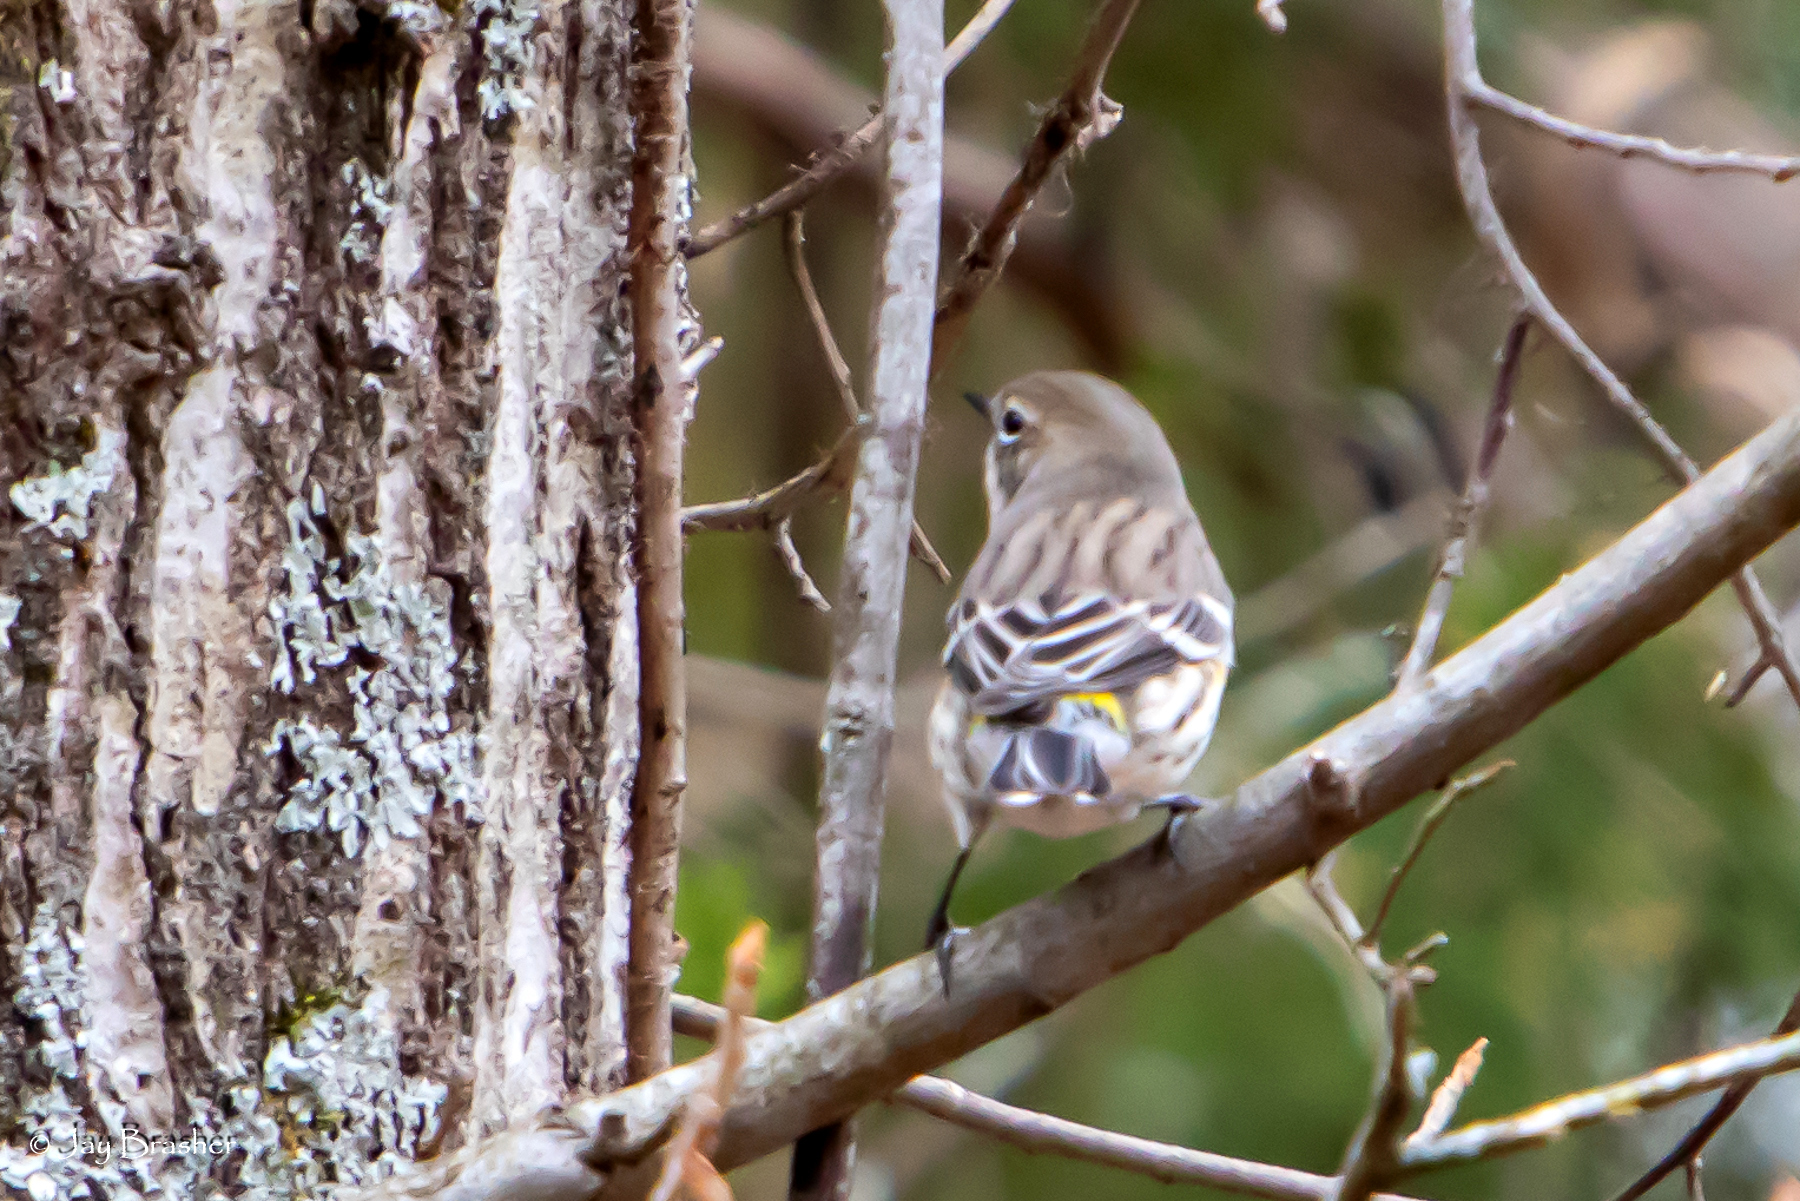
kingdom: Animalia
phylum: Chordata
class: Aves
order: Passeriformes
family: Parulidae
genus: Setophaga
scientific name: Setophaga coronata
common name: Myrtle warbler
